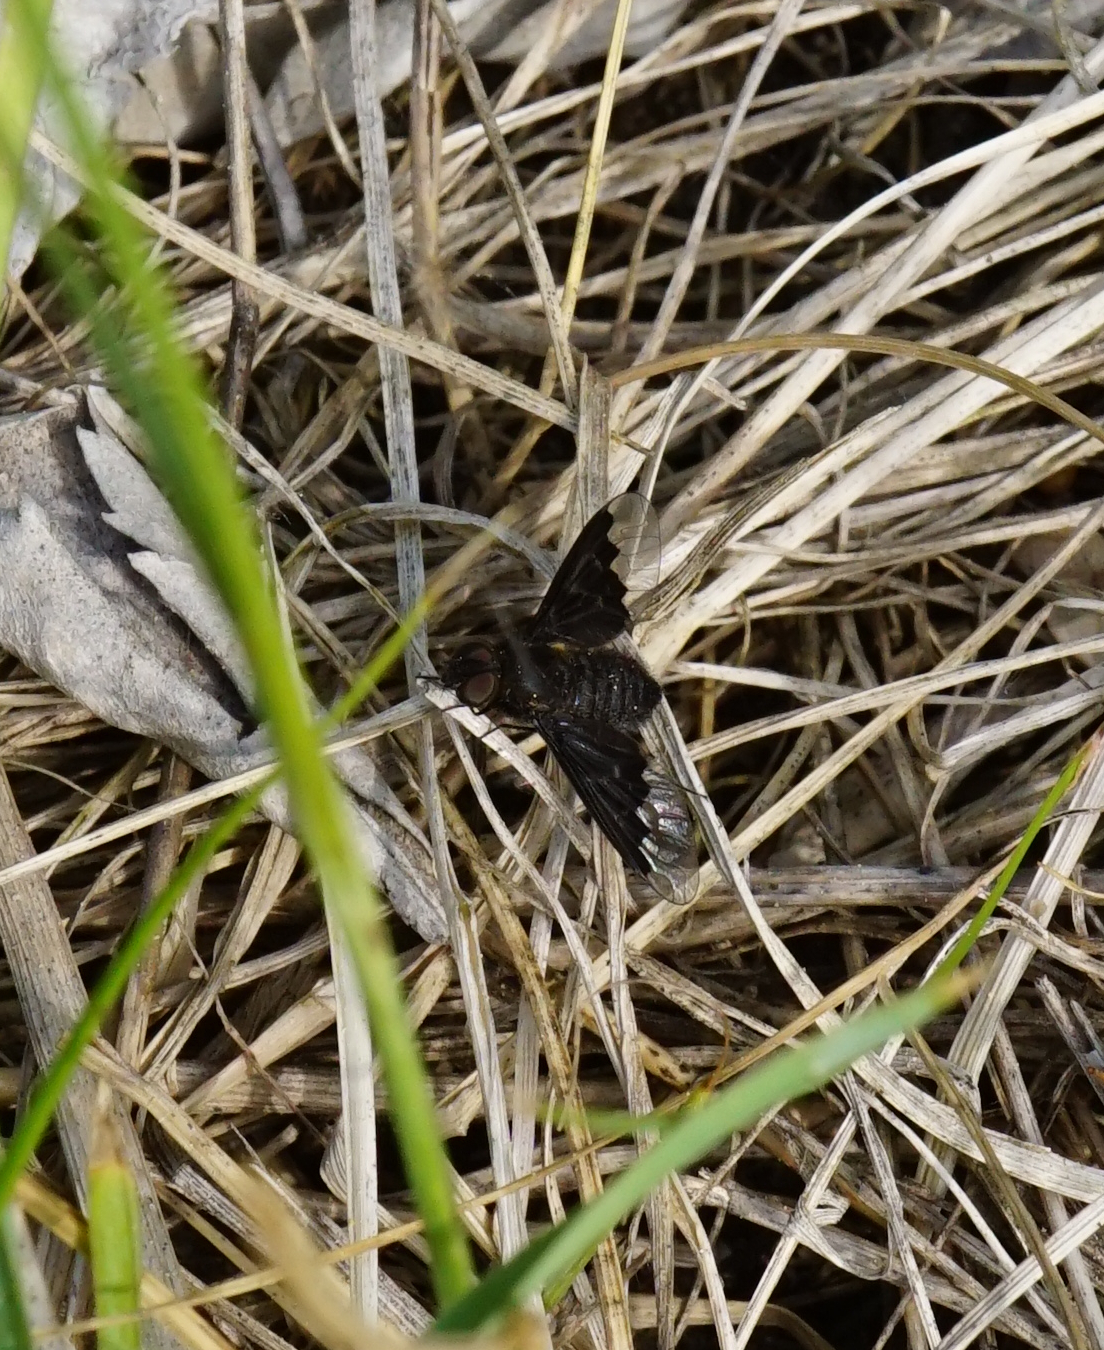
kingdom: Animalia
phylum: Arthropoda
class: Insecta
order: Diptera
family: Bombyliidae
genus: Hemipenthes
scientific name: Hemipenthes morio
